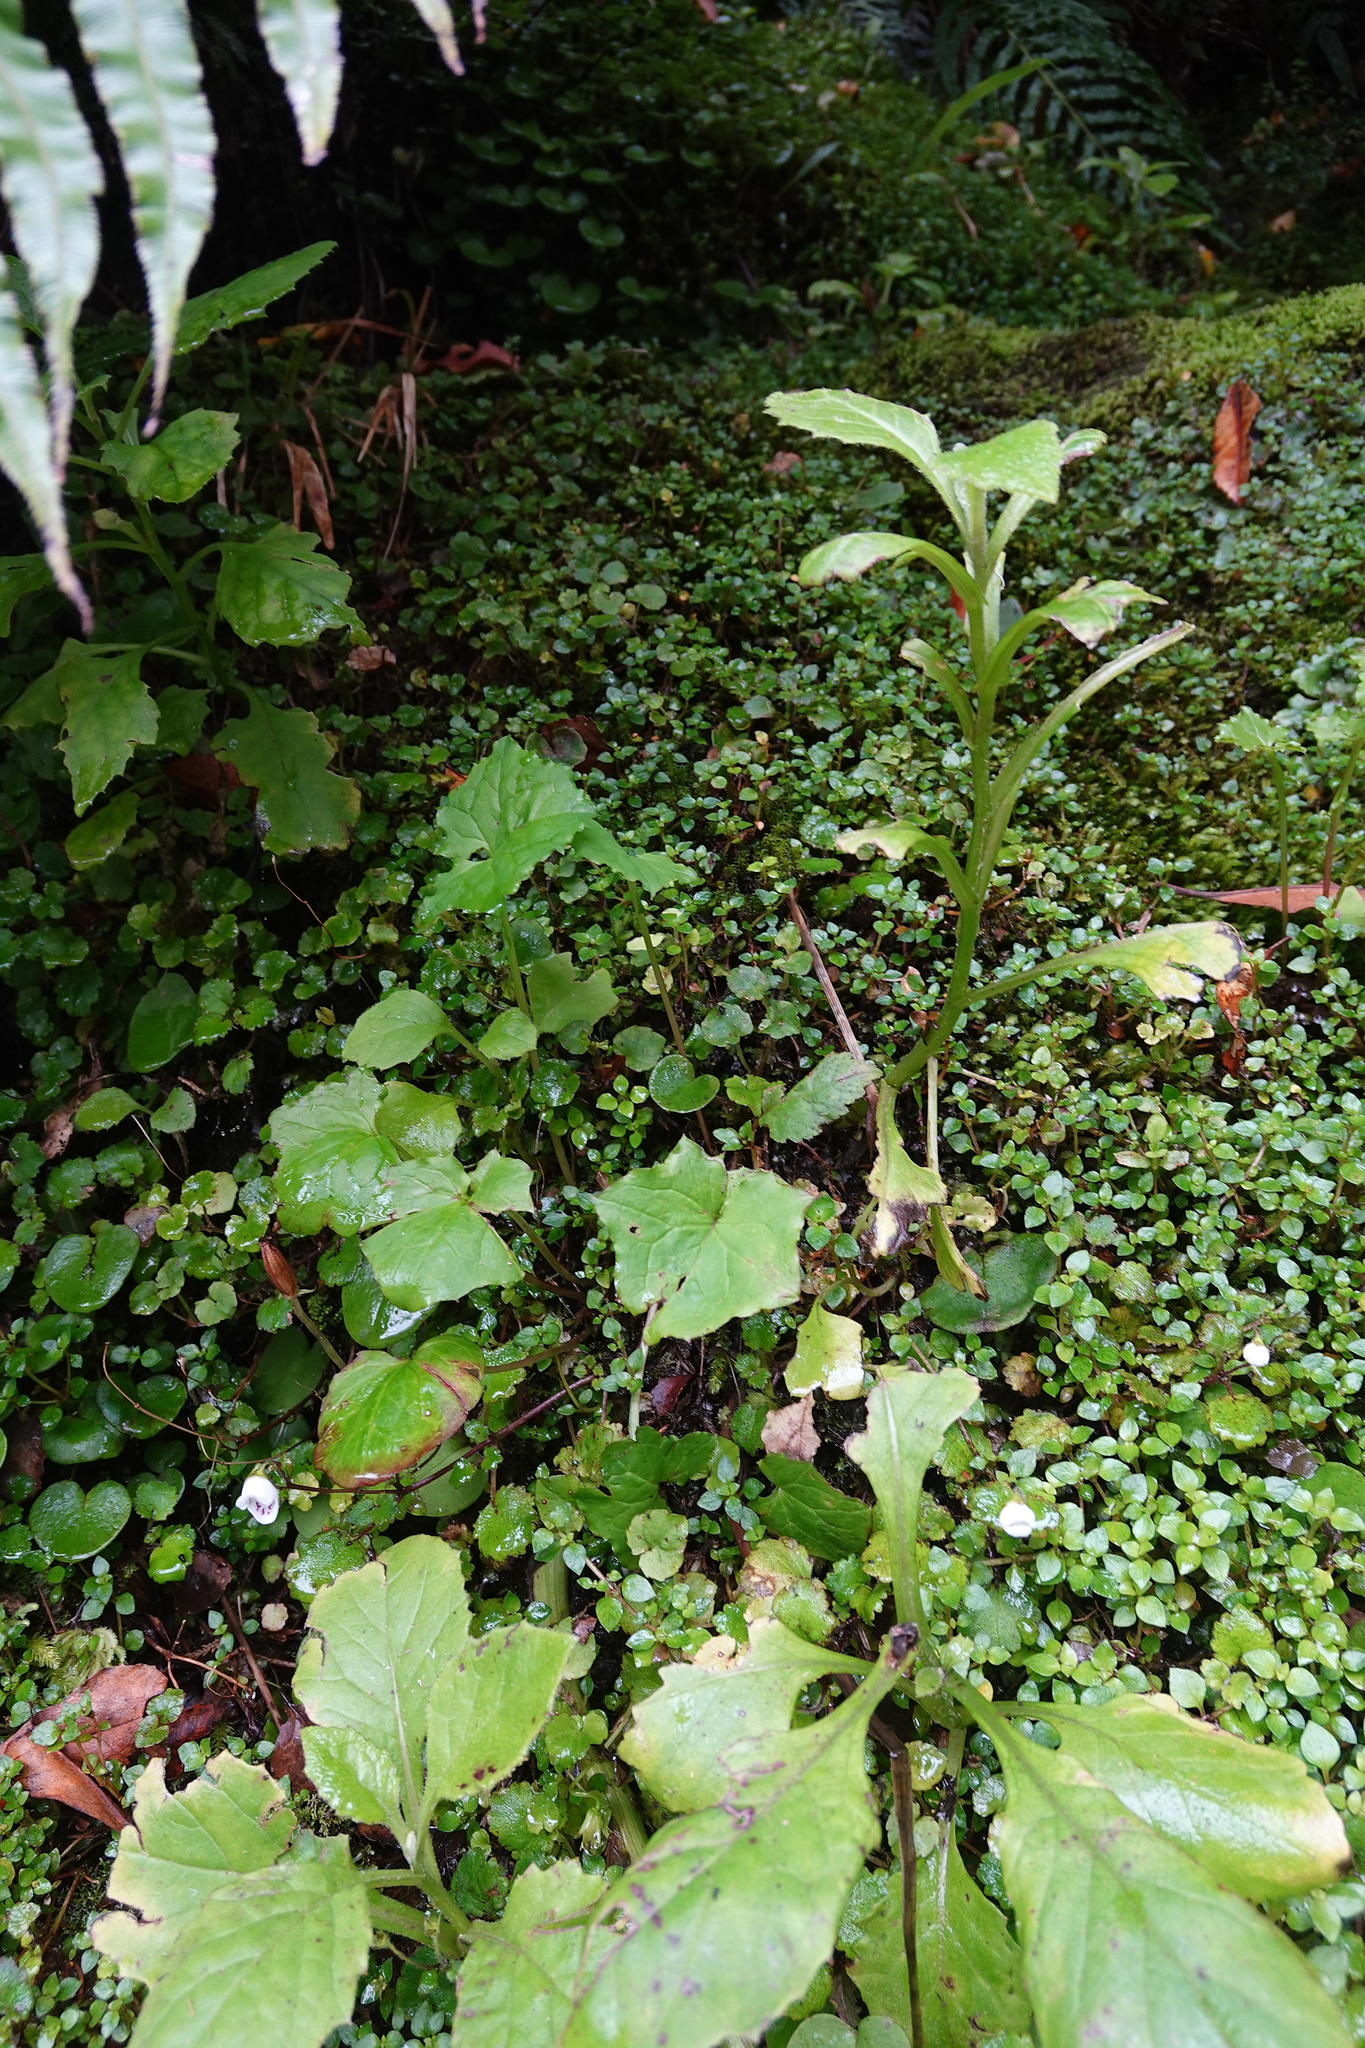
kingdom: Plantae
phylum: Tracheophyta
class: Magnoliopsida
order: Asterales
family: Asteraceae
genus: Mycelis
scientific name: Mycelis muralis
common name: Wall lettuce
